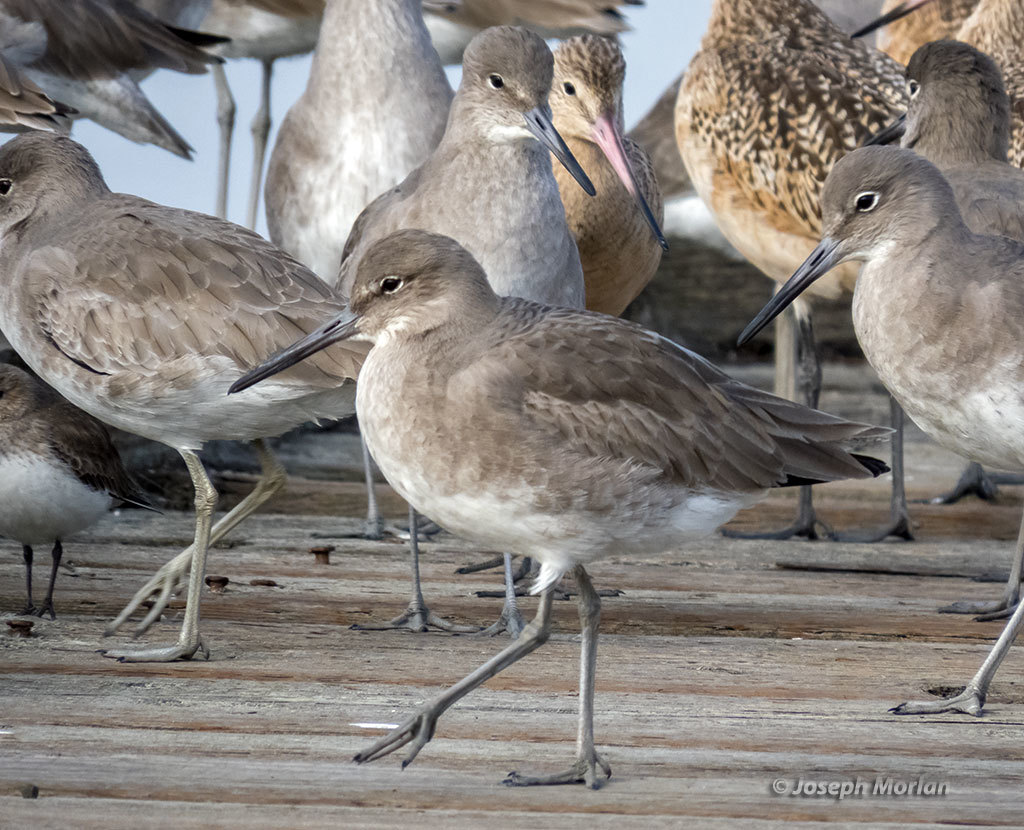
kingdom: Animalia
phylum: Chordata
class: Aves
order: Charadriiformes
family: Scolopacidae
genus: Tringa
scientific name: Tringa semipalmata
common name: Willet
